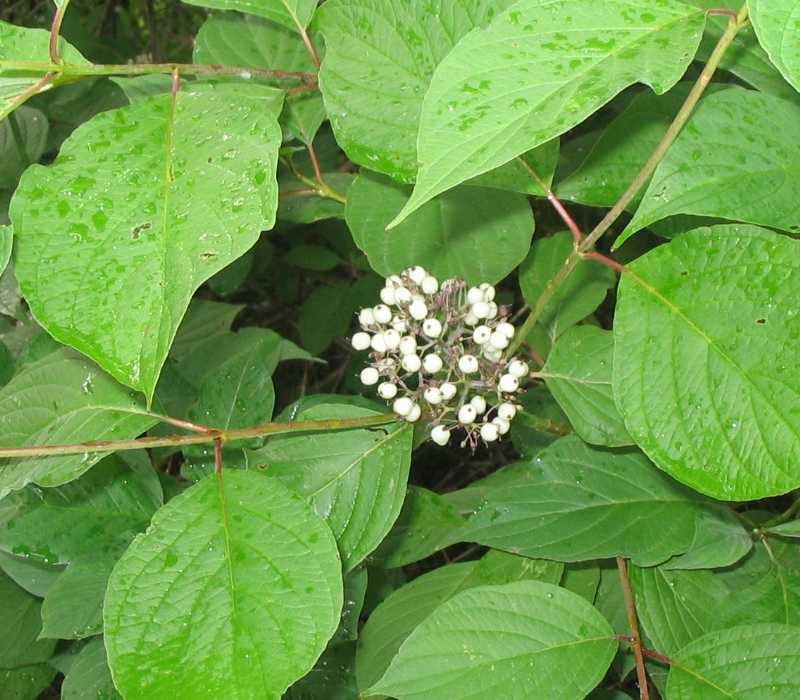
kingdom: Plantae
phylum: Tracheophyta
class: Magnoliopsida
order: Cornales
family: Cornaceae
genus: Cornus
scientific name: Cornus racemosa
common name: Panicled dogwood
